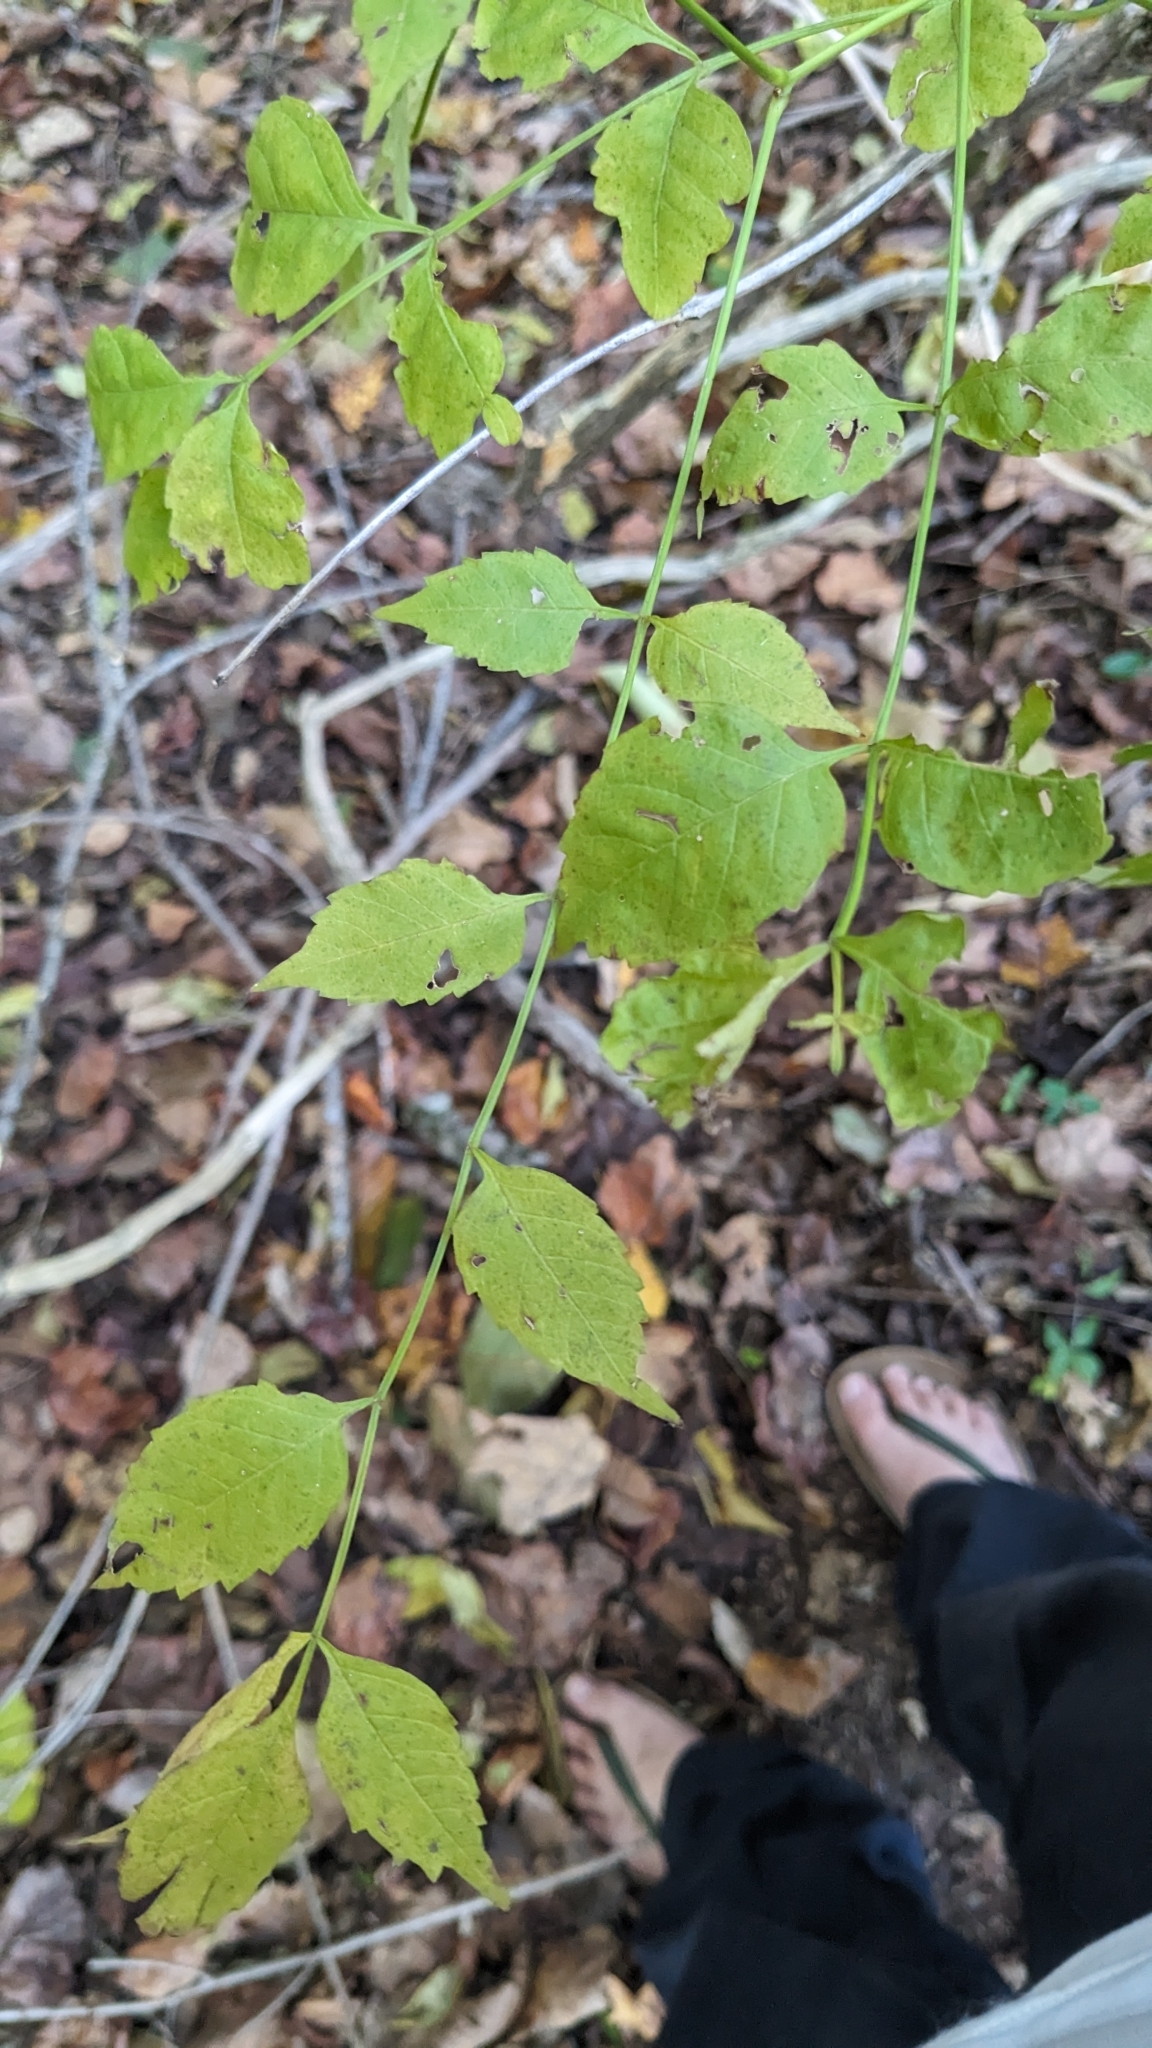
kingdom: Plantae
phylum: Tracheophyta
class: Magnoliopsida
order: Lamiales
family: Bignoniaceae
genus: Campsis
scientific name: Campsis radicans
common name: Trumpet-creeper
